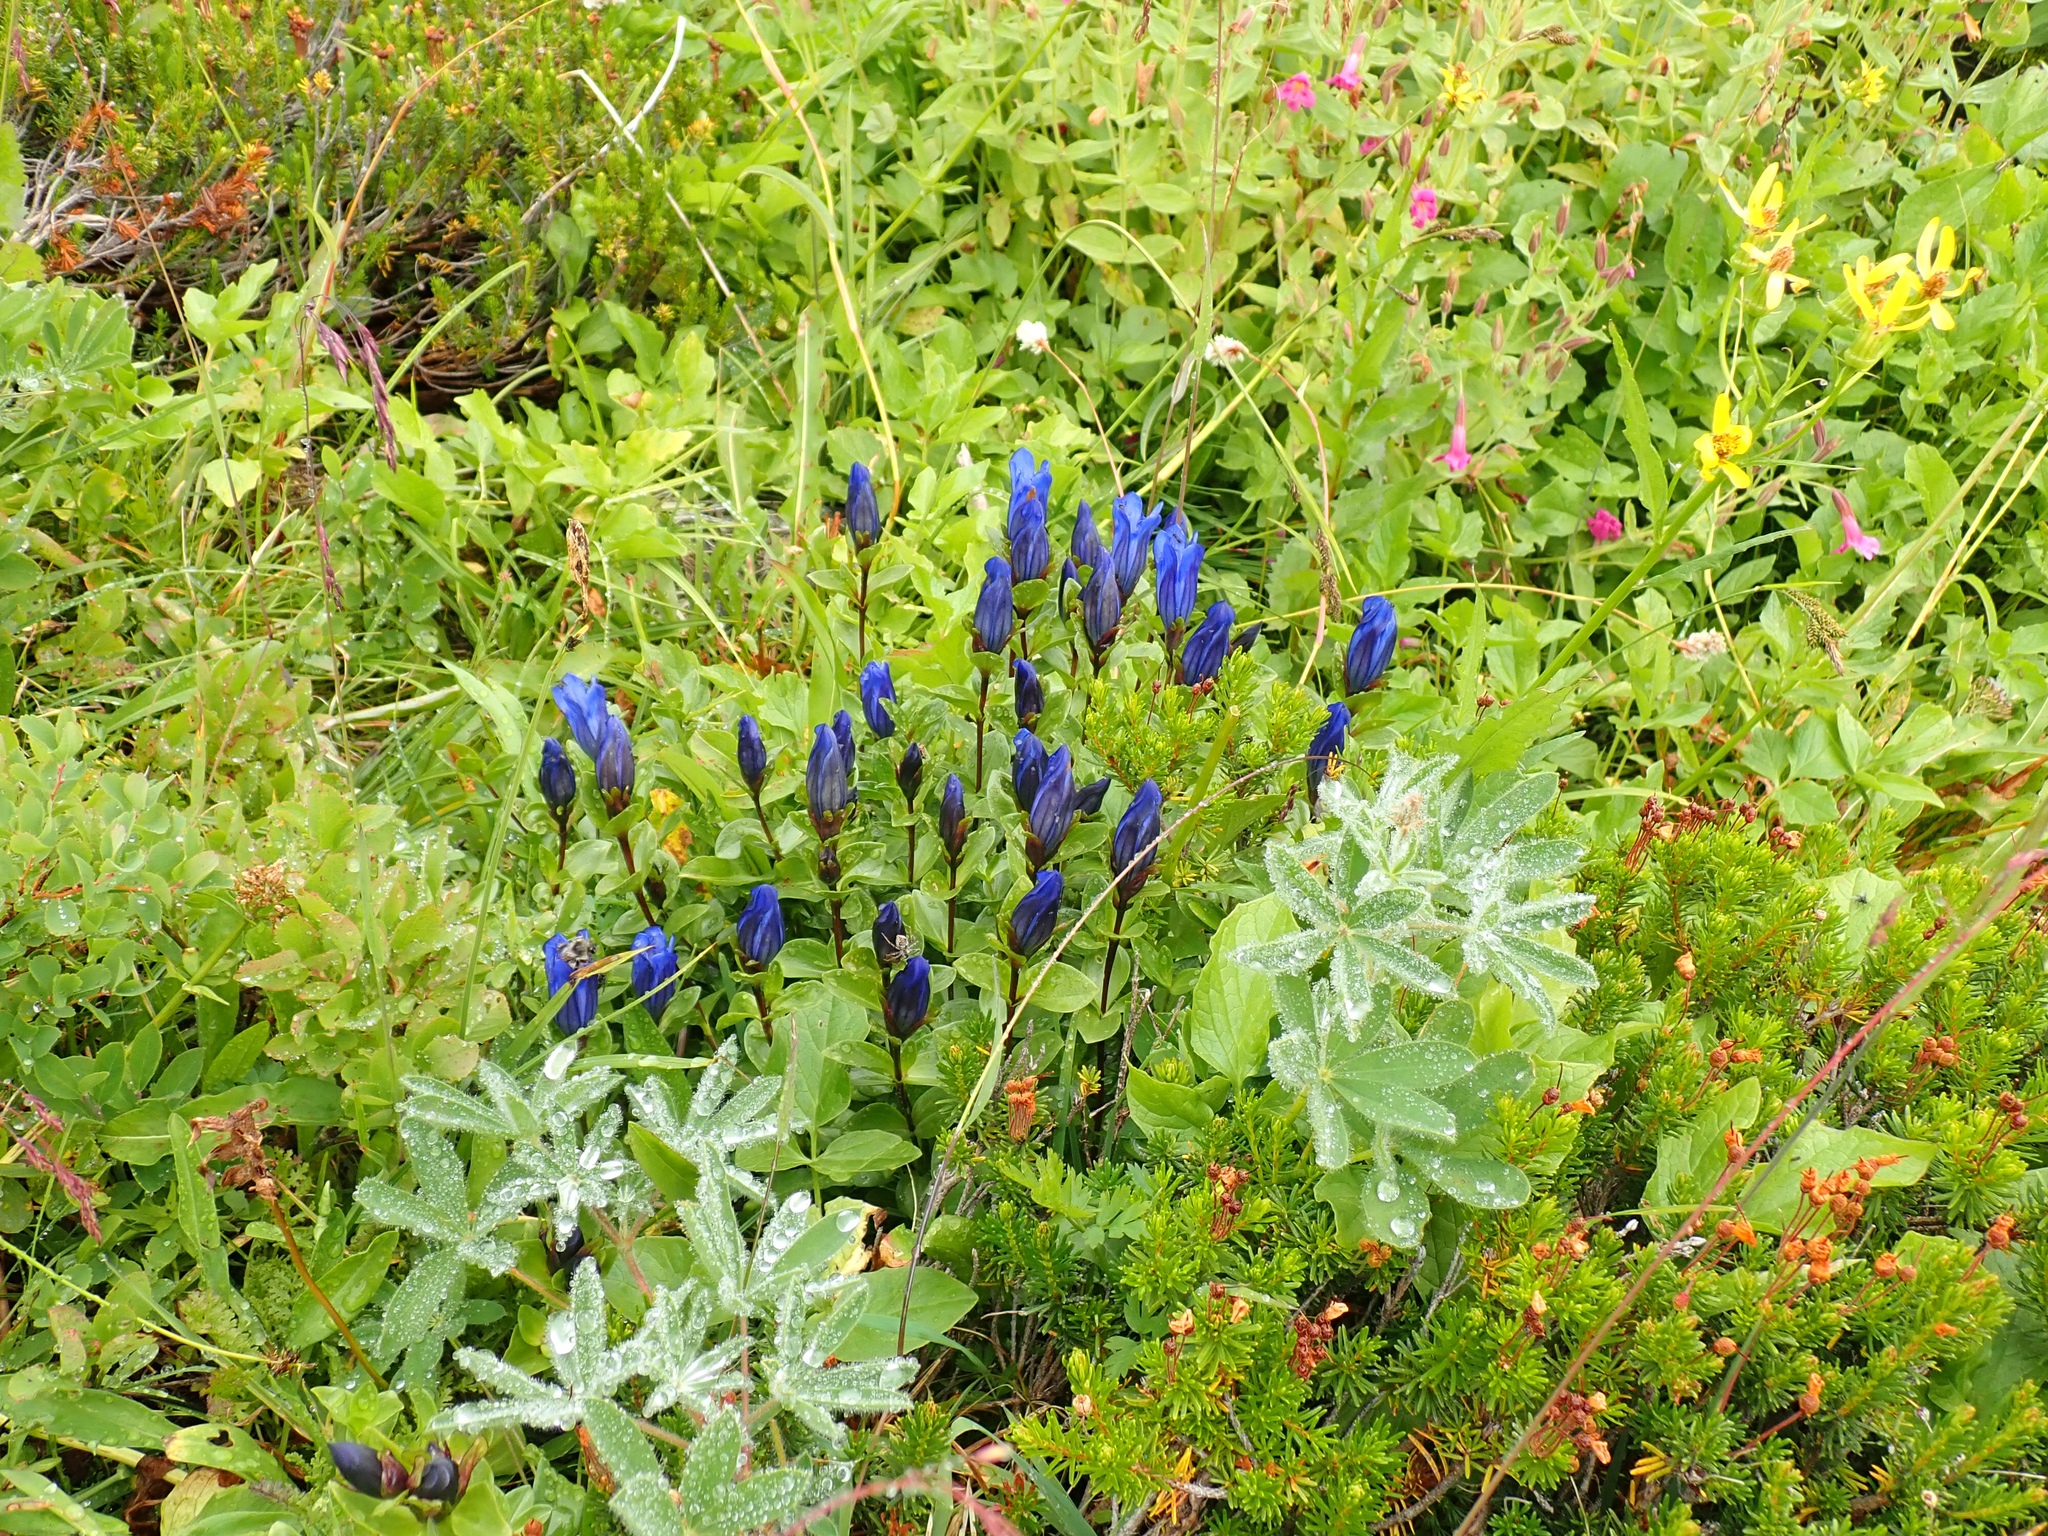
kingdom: Plantae
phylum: Tracheophyta
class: Magnoliopsida
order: Gentianales
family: Gentianaceae
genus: Gentiana
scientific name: Gentiana calycosa
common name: Rainier pleated gentian
